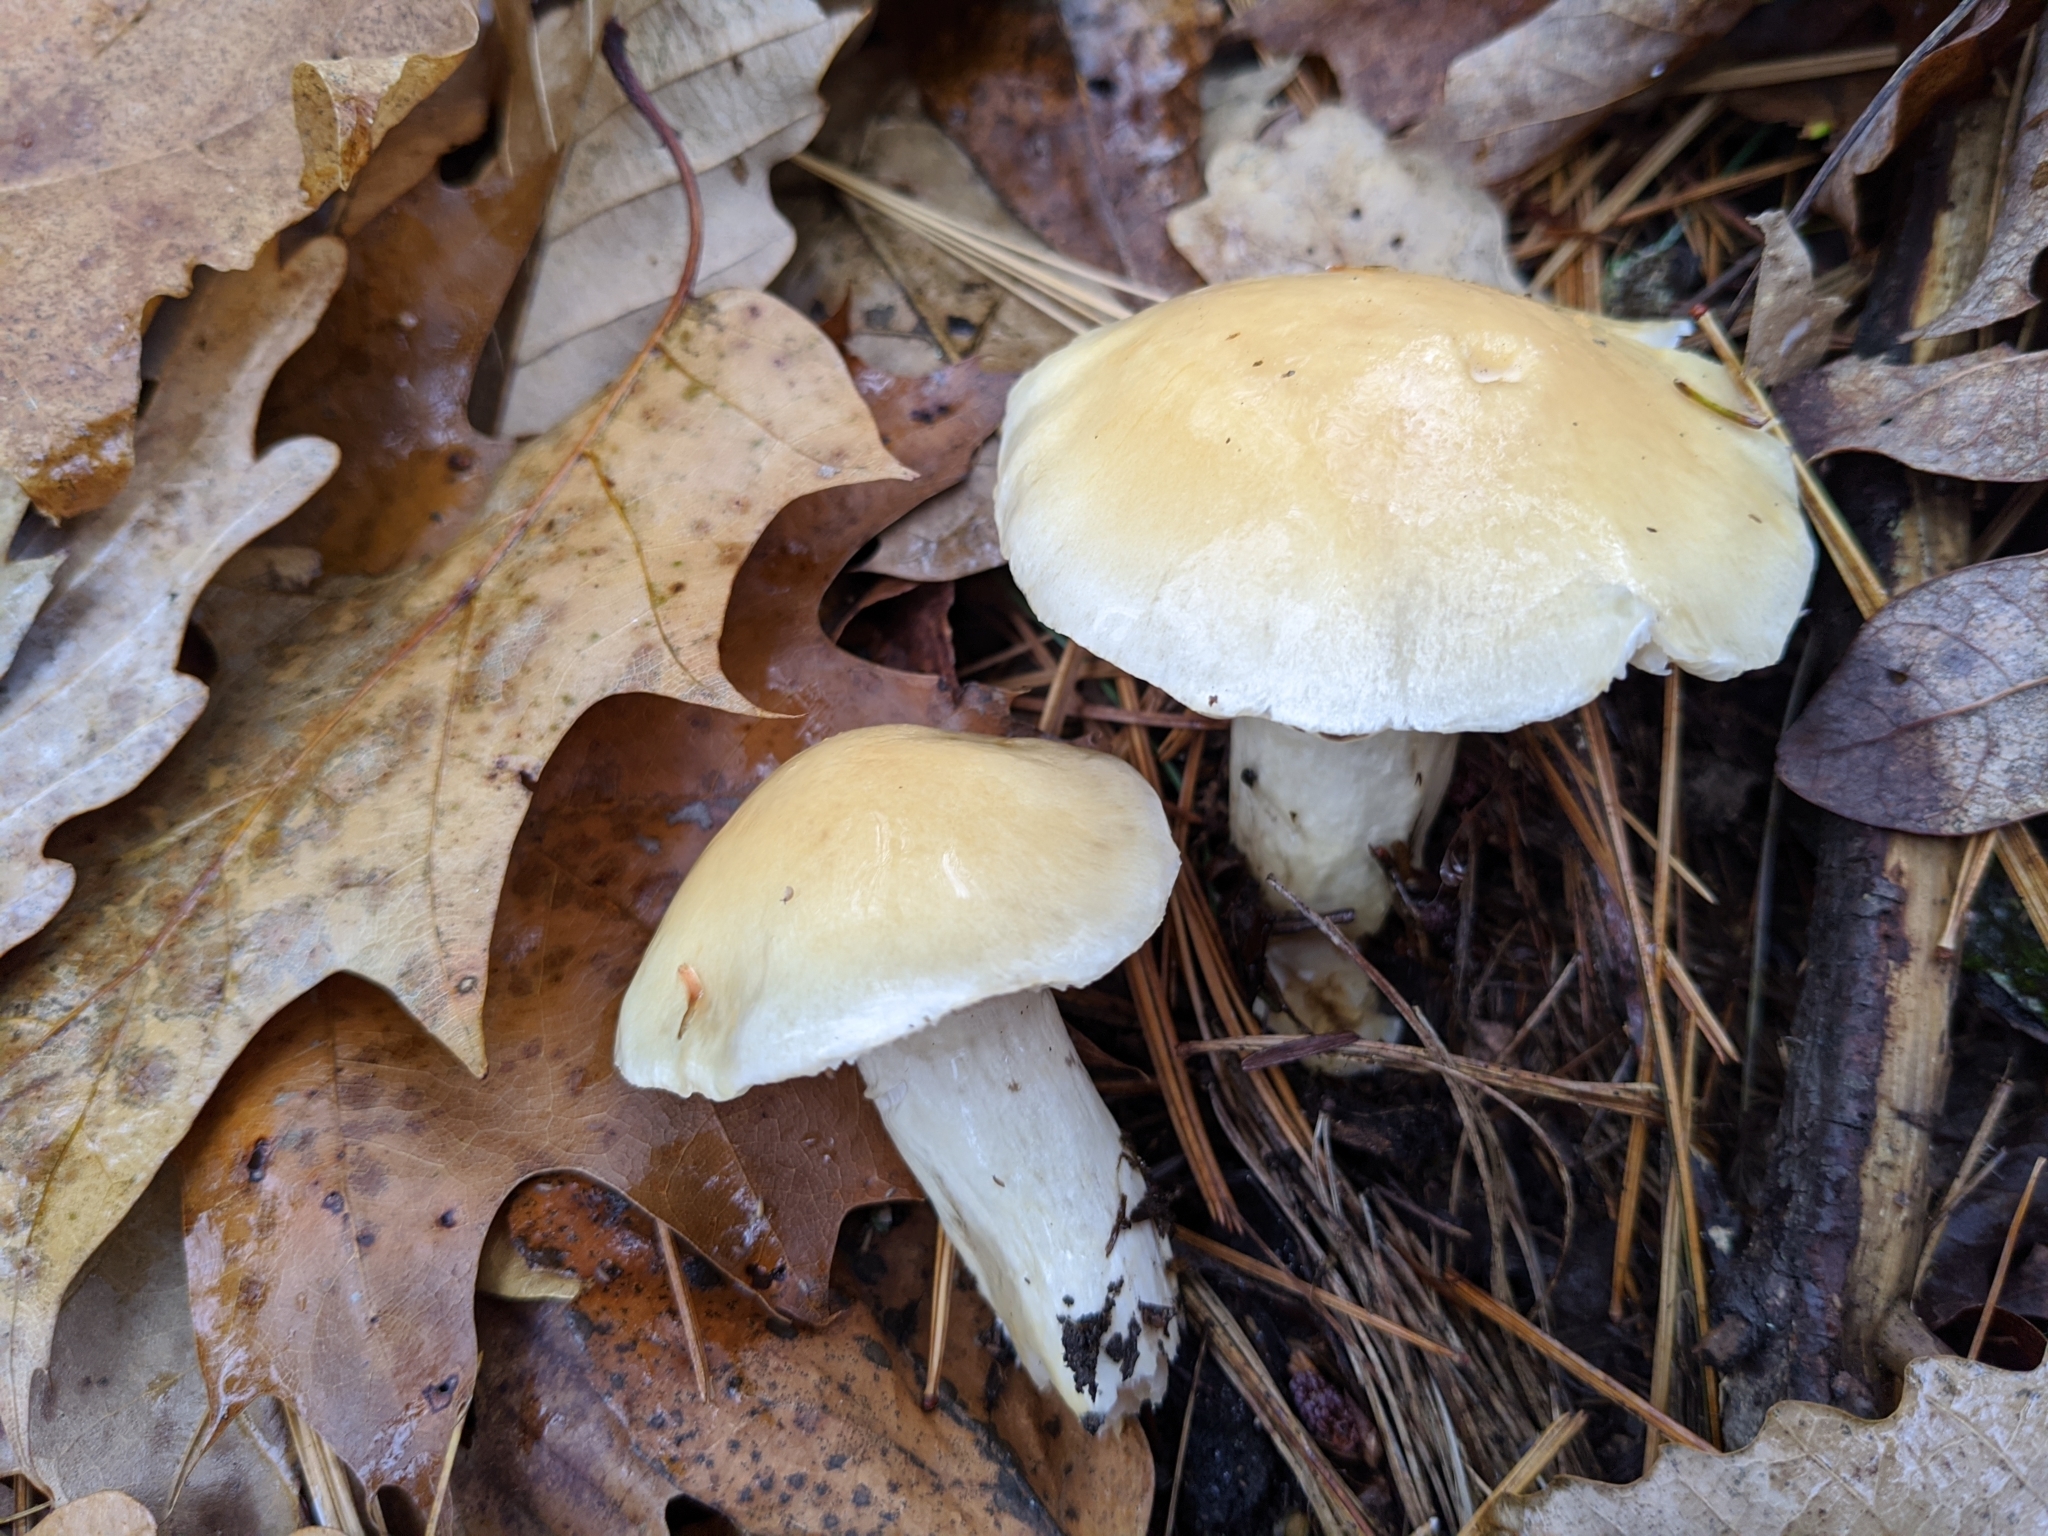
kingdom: Fungi
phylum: Basidiomycota
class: Agaricomycetes
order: Agaricales
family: Hygrophoraceae
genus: Hygrophorus
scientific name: Hygrophorus ligatus
